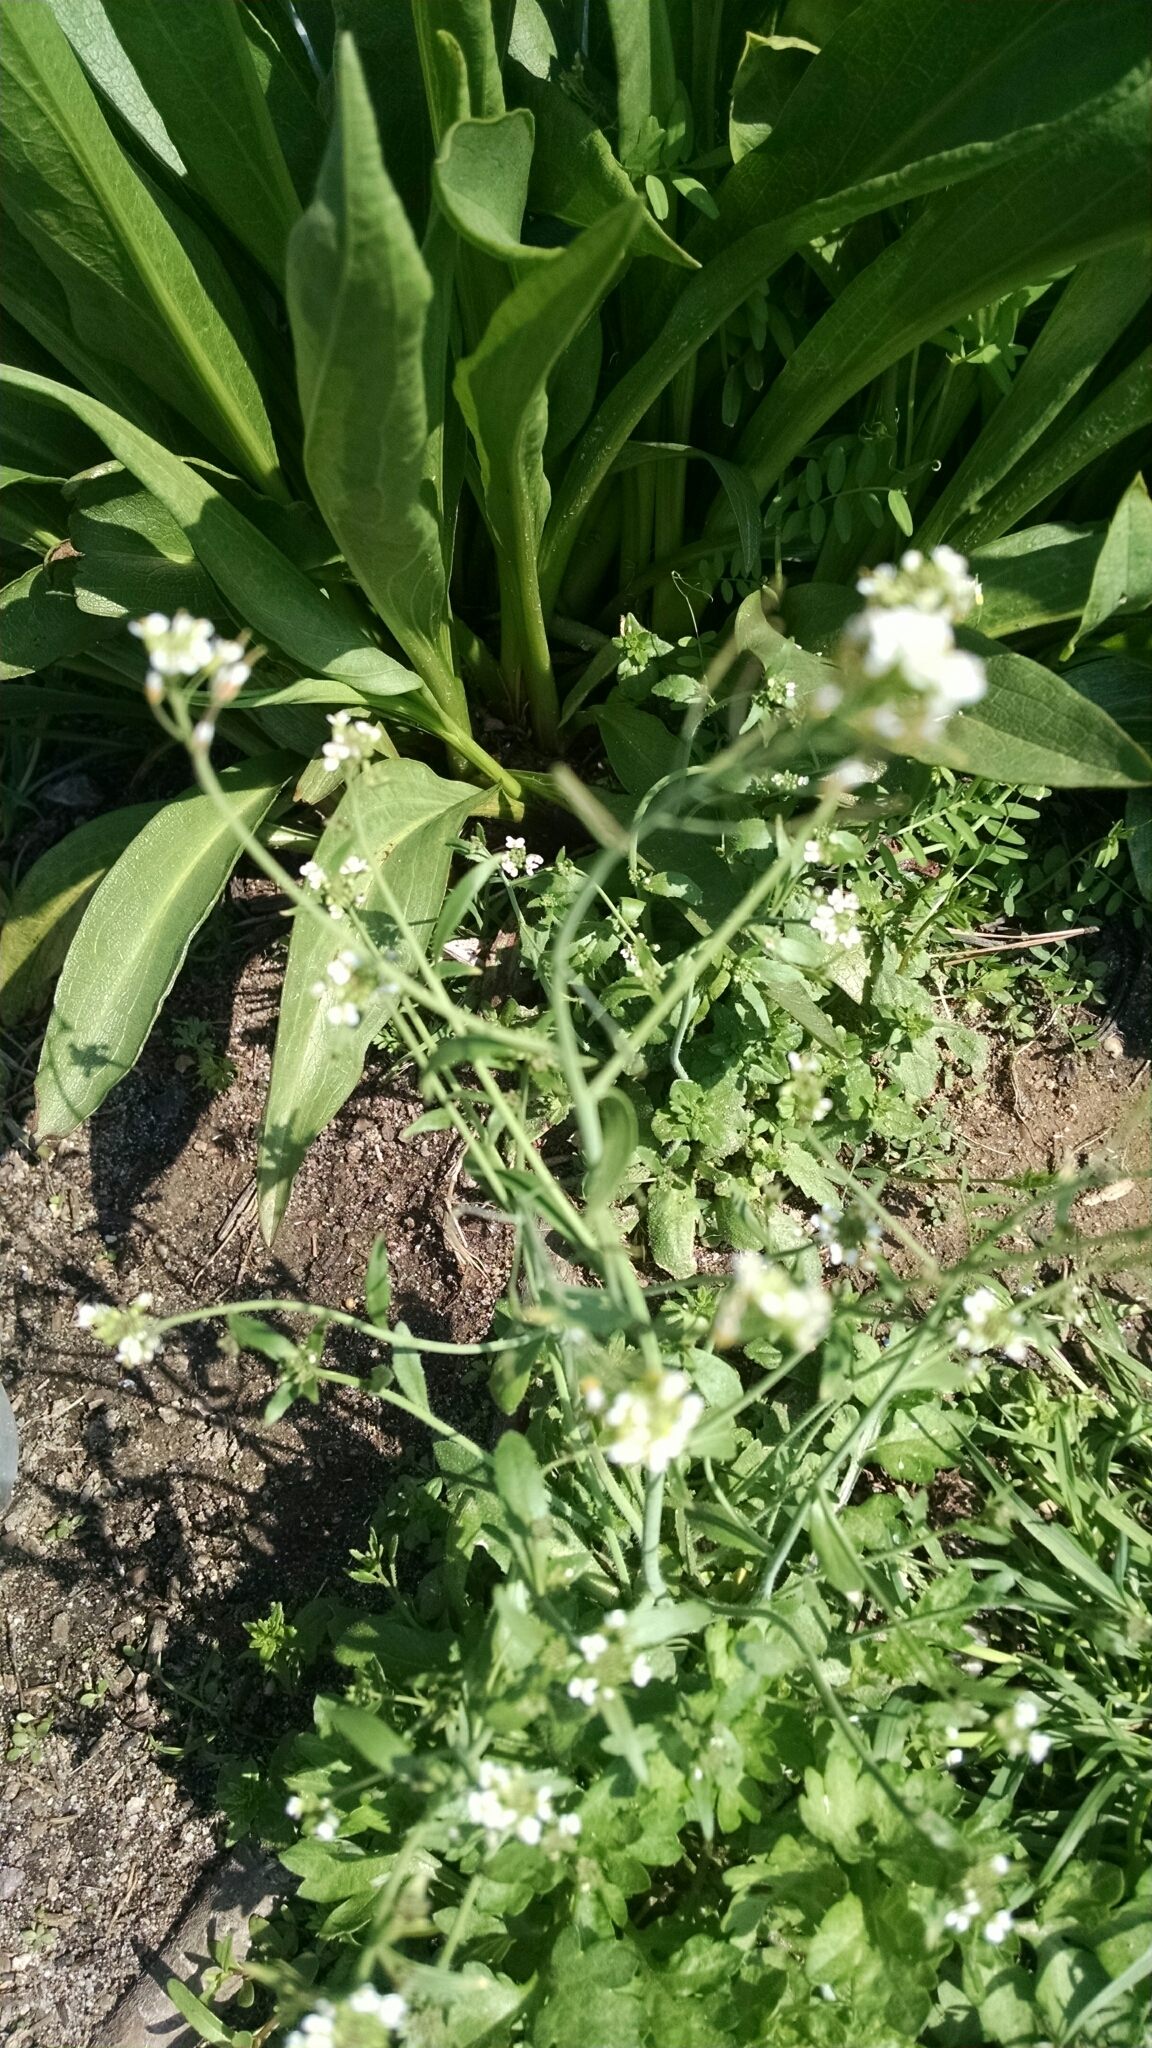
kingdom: Plantae
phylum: Tracheophyta
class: Magnoliopsida
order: Brassicales
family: Brassicaceae
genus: Arabidopsis
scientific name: Arabidopsis thaliana
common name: Thale cress
